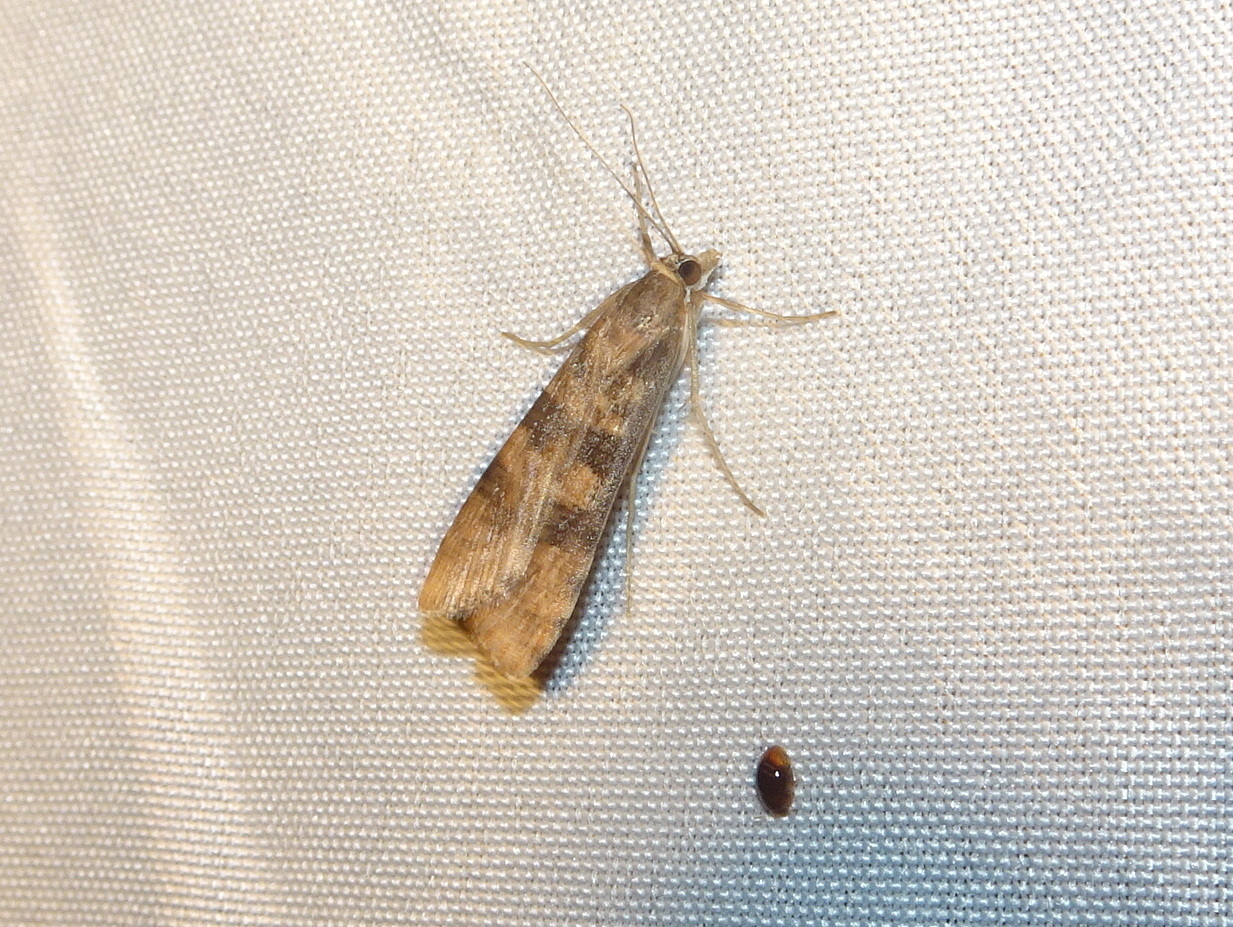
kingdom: Animalia
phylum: Arthropoda
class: Insecta
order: Lepidoptera
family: Crambidae
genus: Nomophila
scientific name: Nomophila nearctica
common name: American rush veneer
